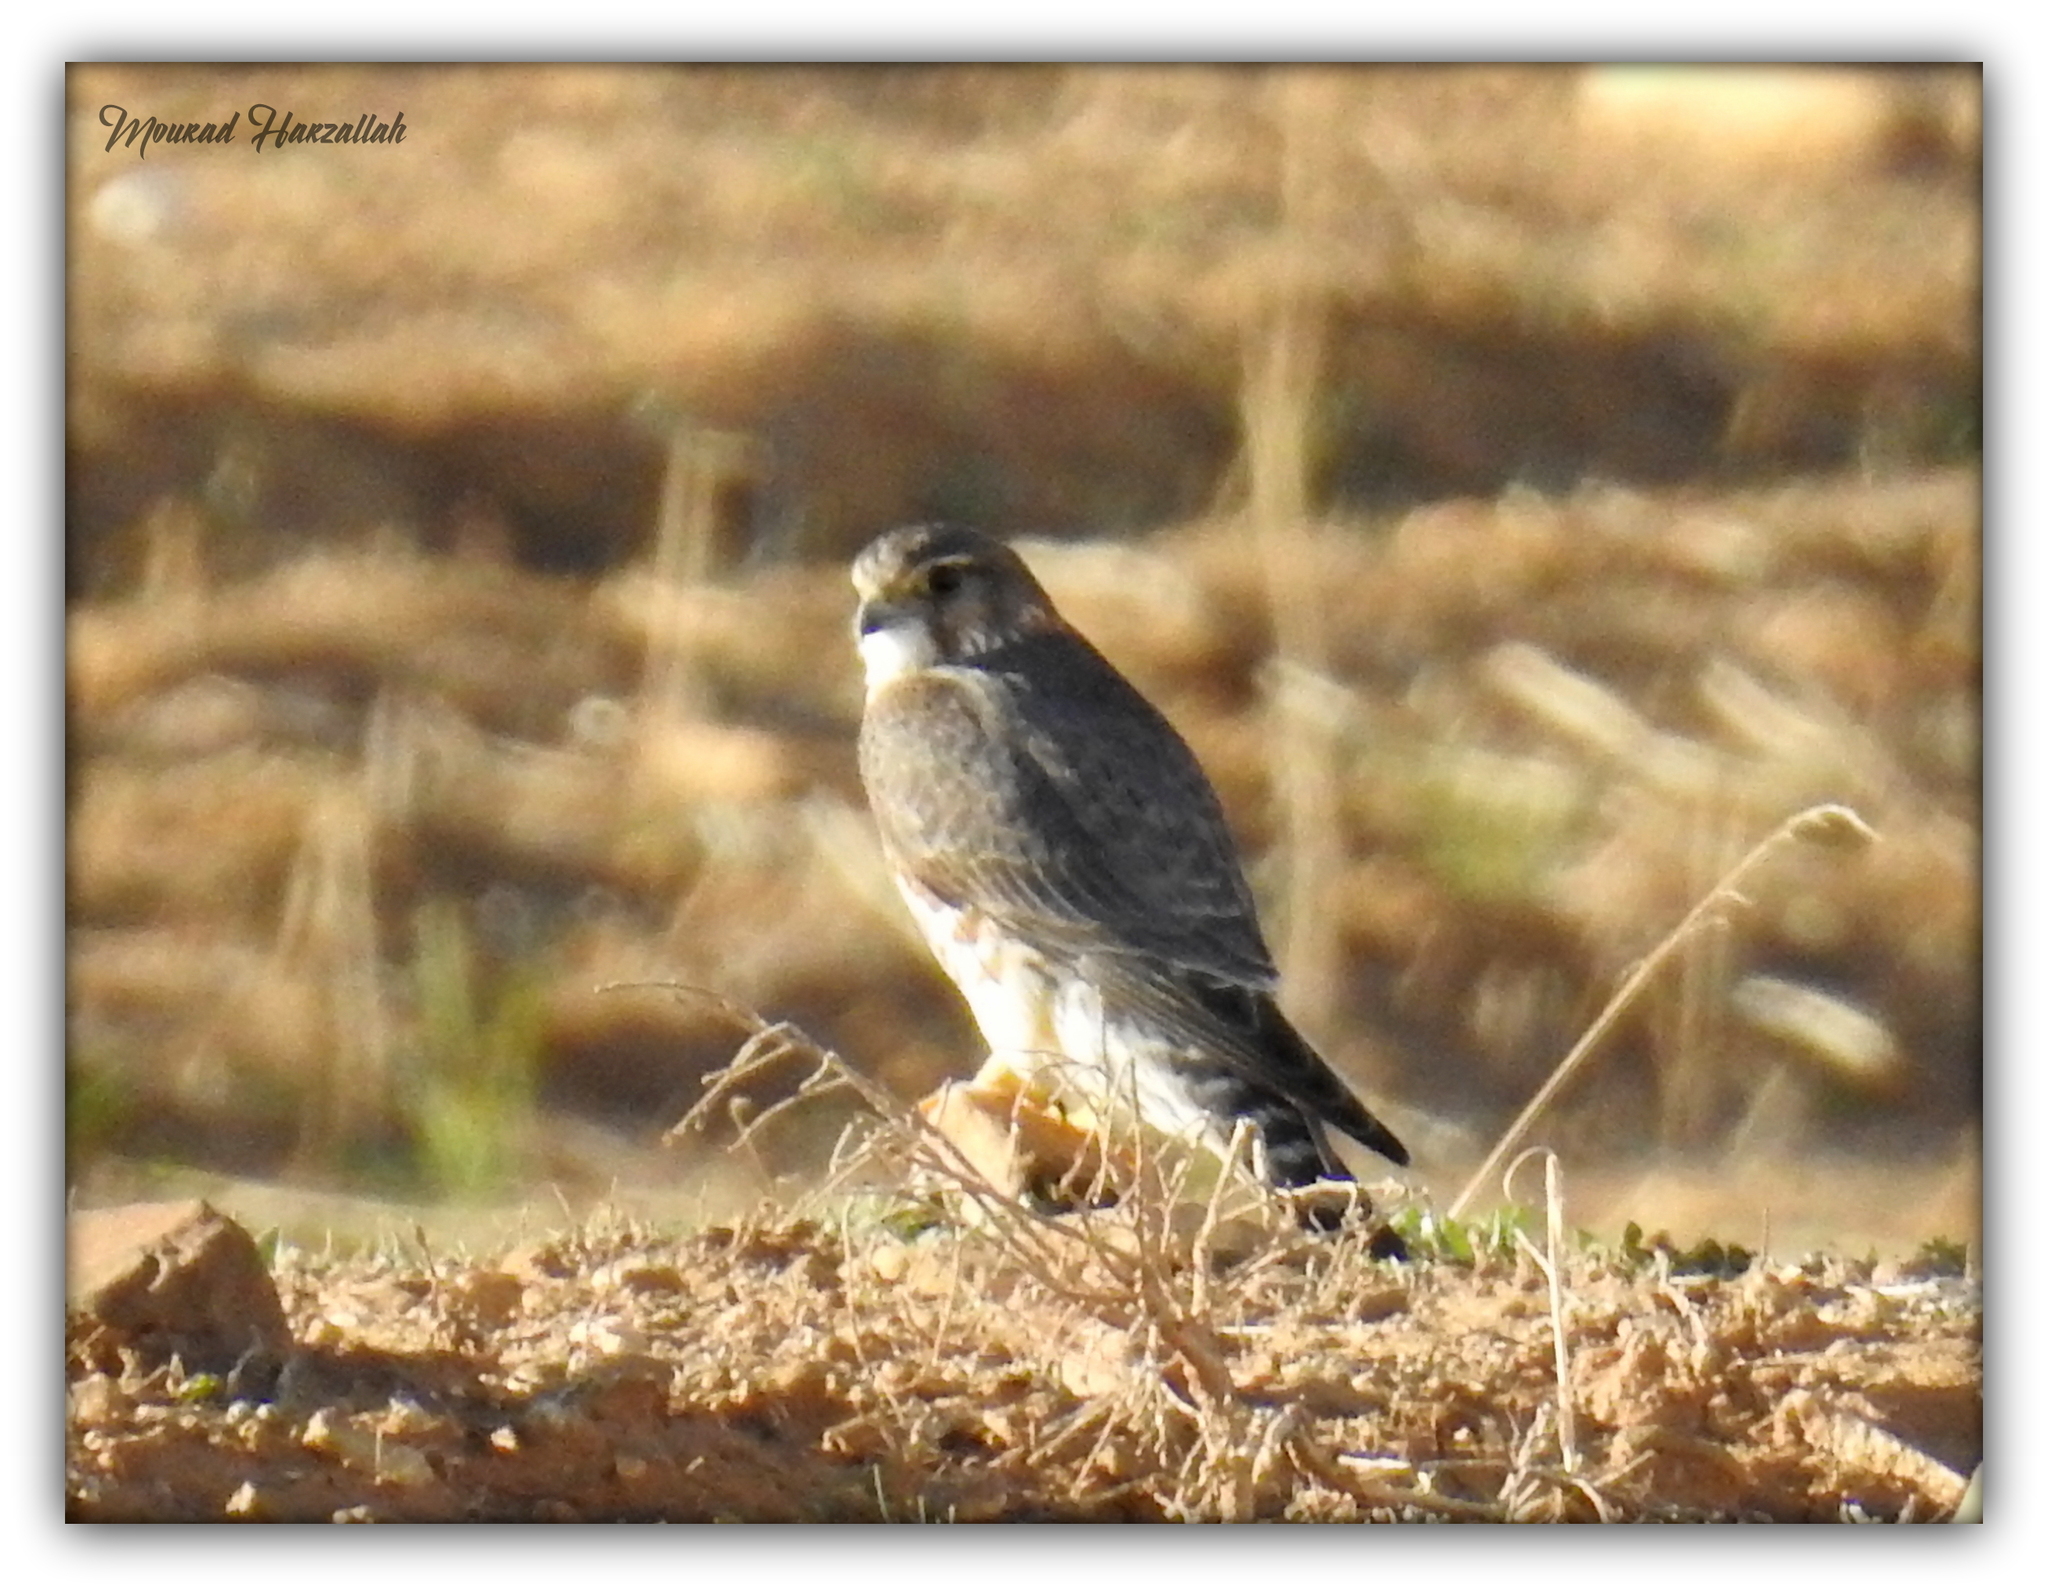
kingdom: Animalia
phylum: Chordata
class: Aves
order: Falconiformes
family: Falconidae
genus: Falco
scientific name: Falco columbarius
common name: Merlin
